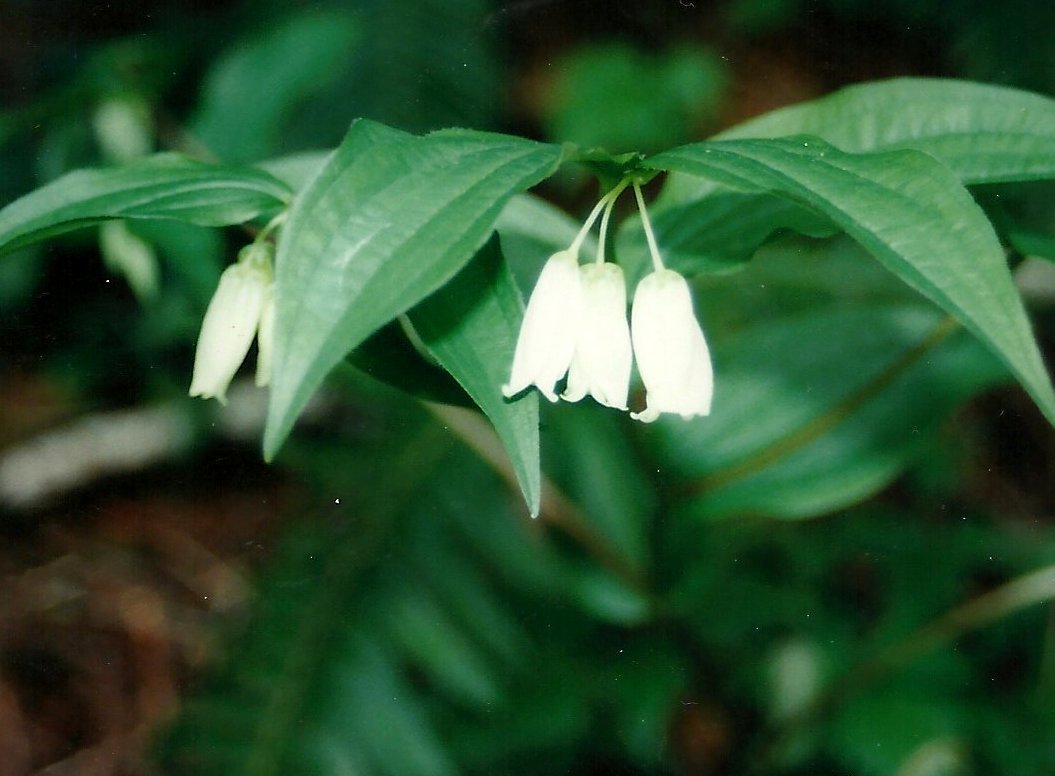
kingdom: Plantae
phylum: Tracheophyta
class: Liliopsida
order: Liliales
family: Liliaceae
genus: Prosartes
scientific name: Prosartes smithii
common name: Fairy-lantern
